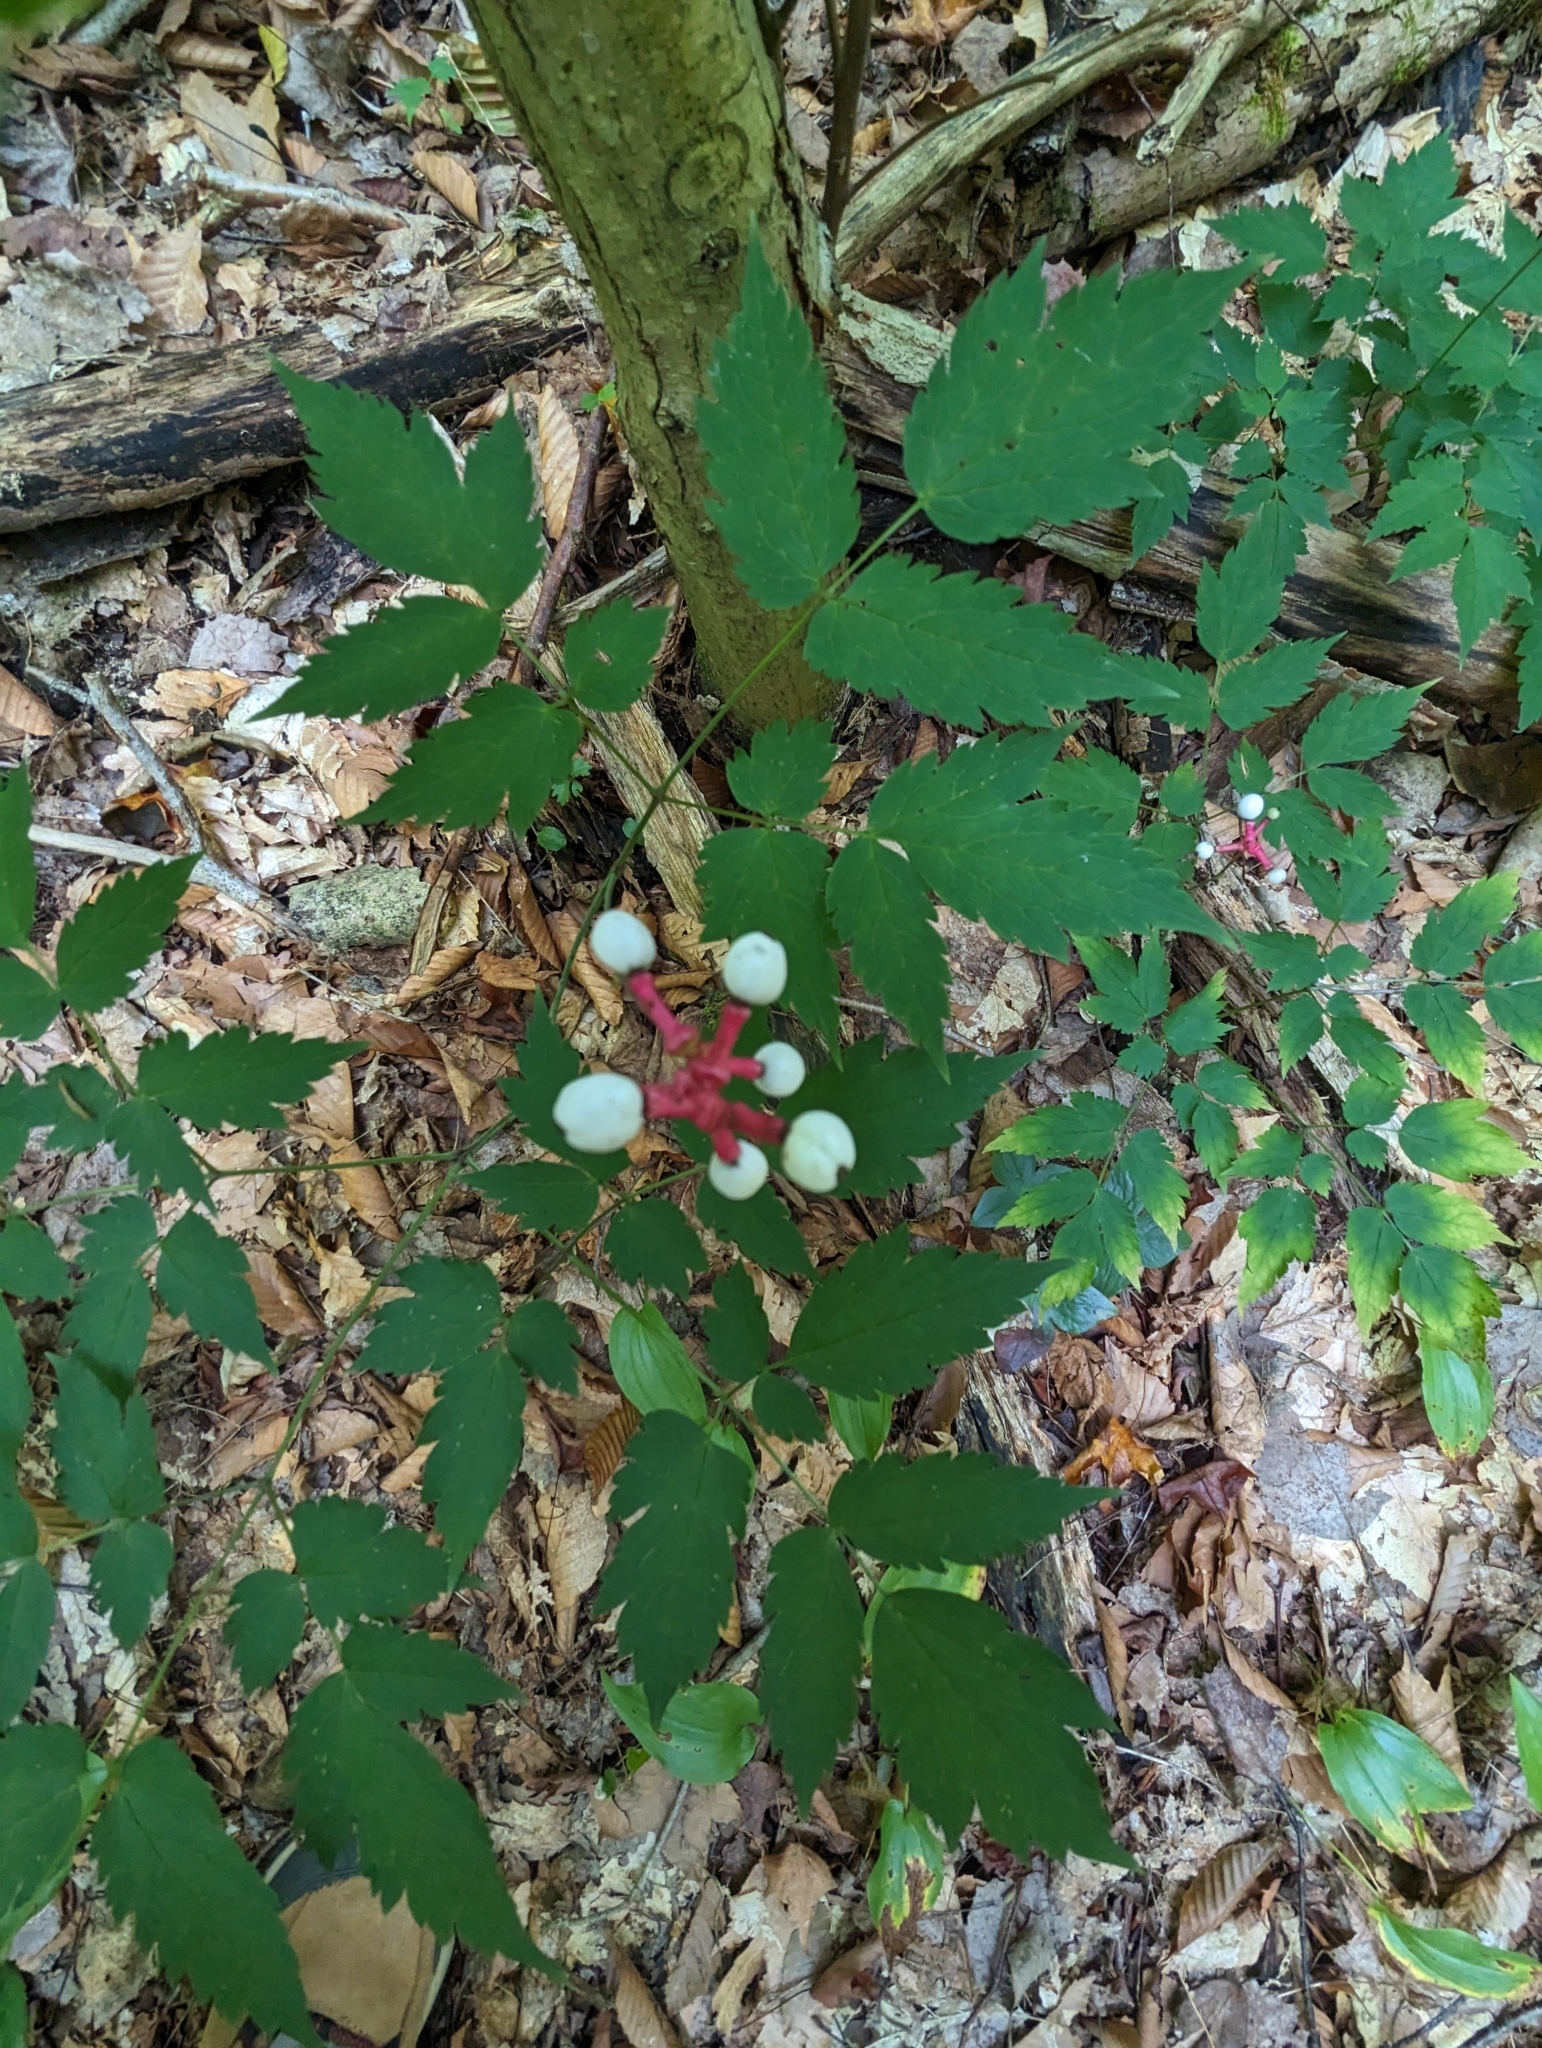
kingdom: Plantae
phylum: Tracheophyta
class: Magnoliopsida
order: Ranunculales
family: Ranunculaceae
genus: Actaea
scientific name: Actaea pachypoda
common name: Doll's-eyes
